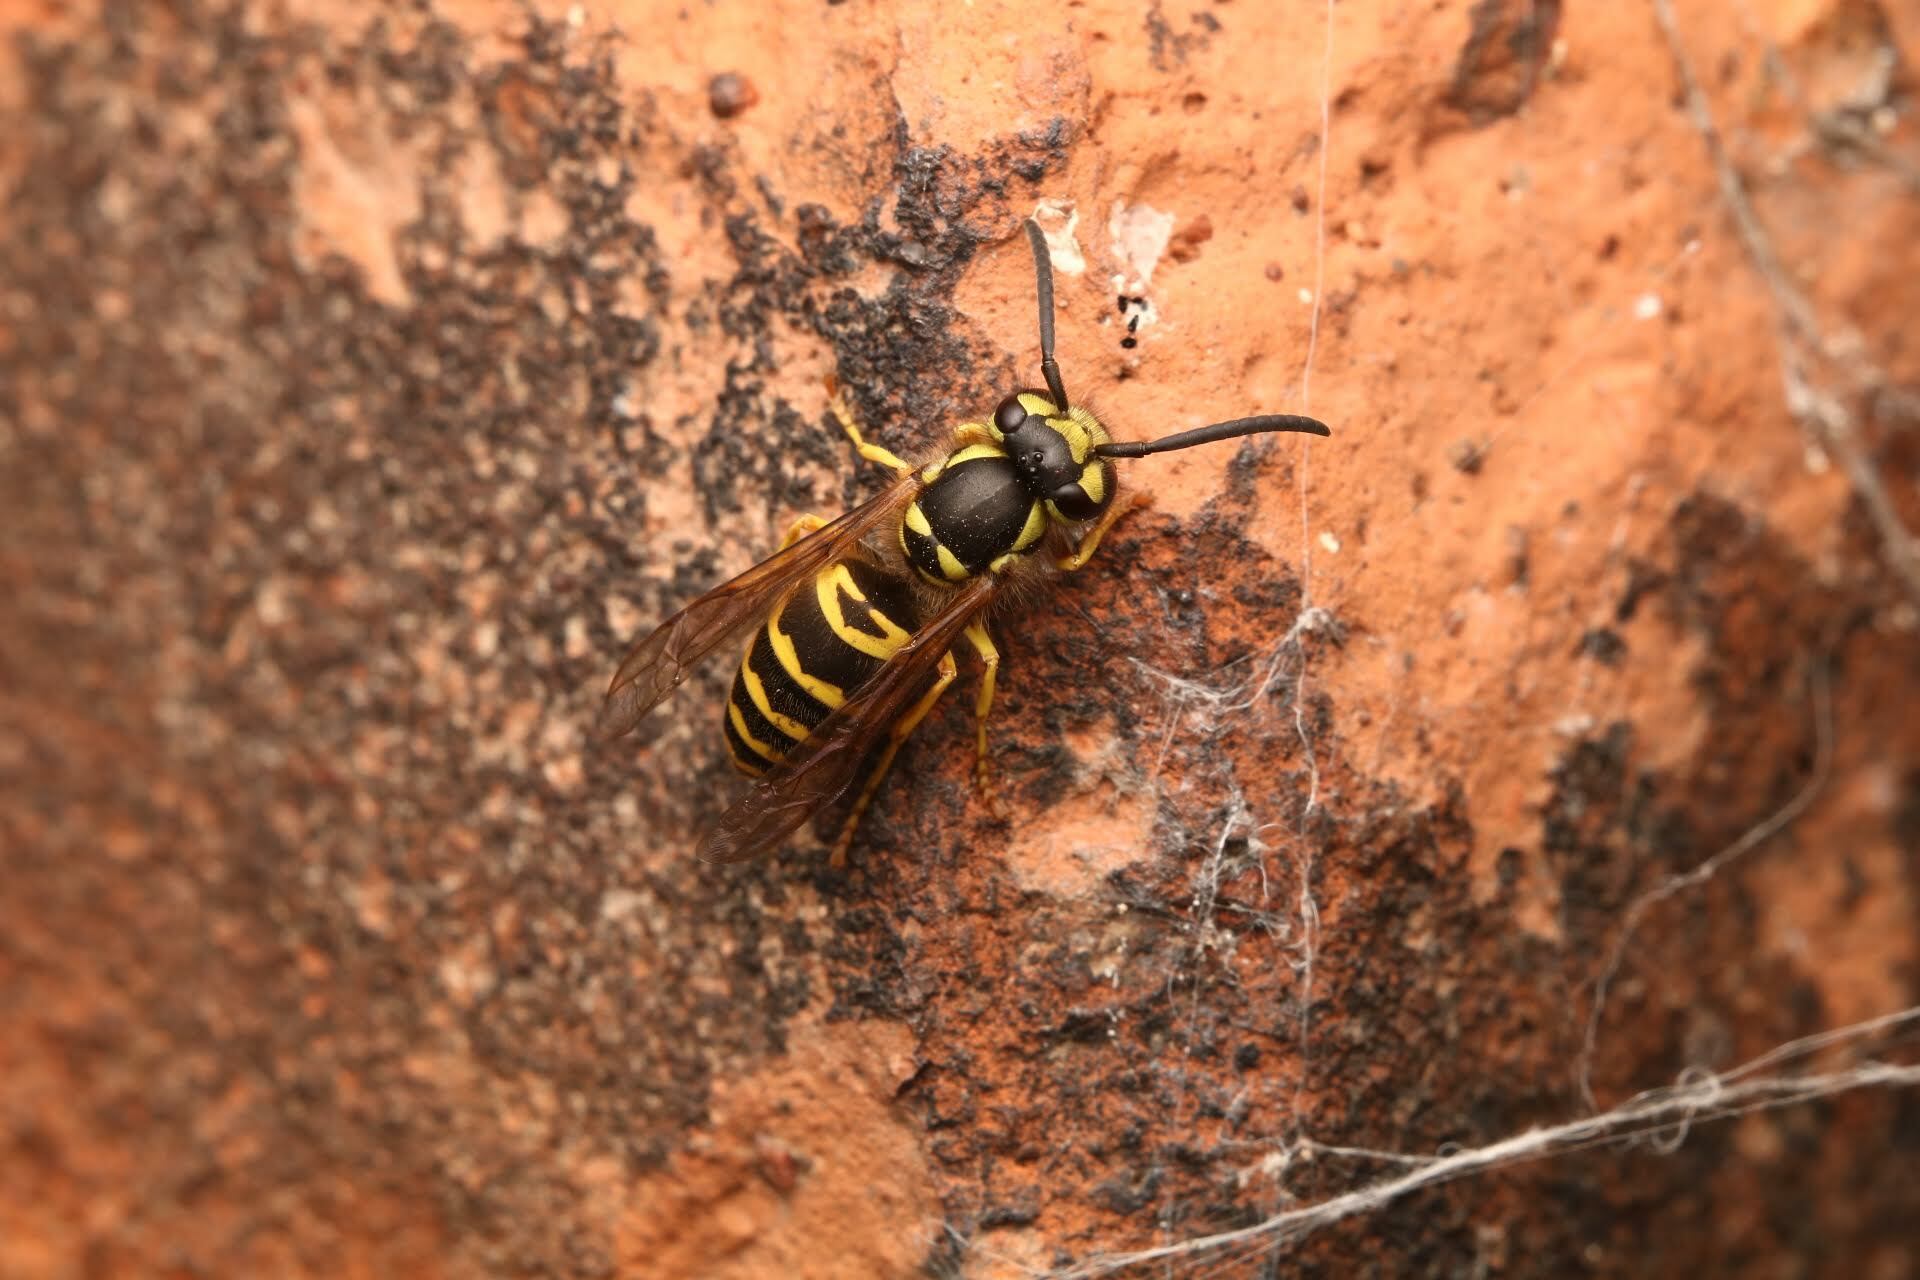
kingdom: Animalia
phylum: Arthropoda
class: Insecta
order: Hymenoptera
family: Vespidae
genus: Vespula
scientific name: Vespula maculifrons
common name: Eastern yellowjacket
